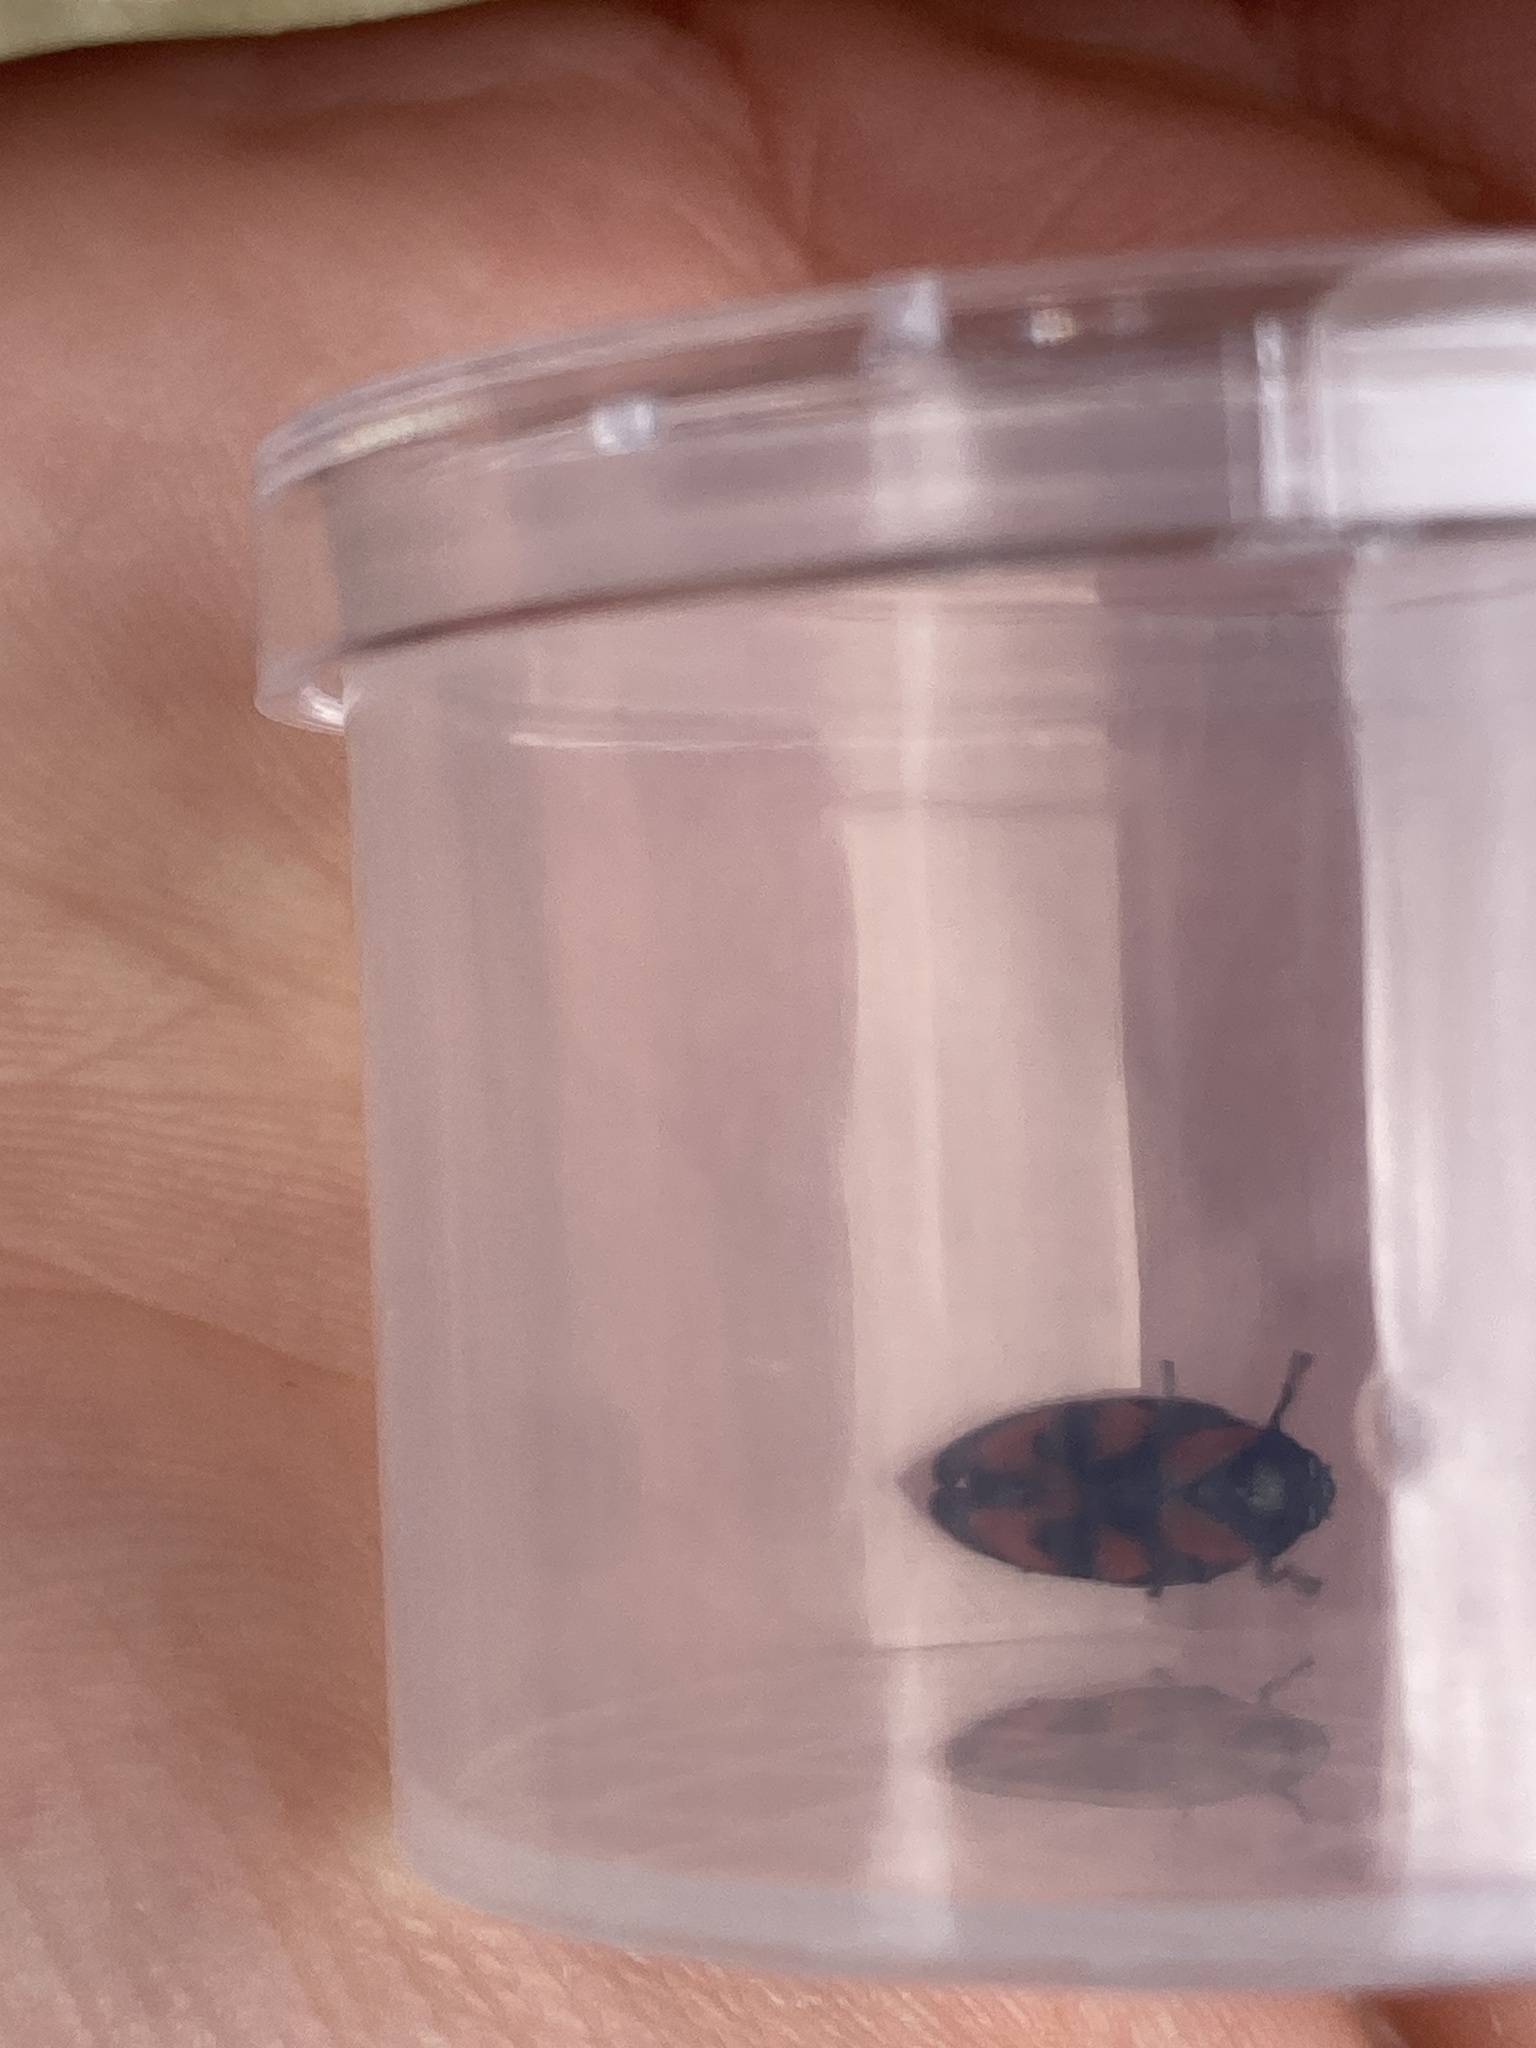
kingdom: Animalia
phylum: Arthropoda
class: Insecta
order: Hemiptera
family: Cercopidae
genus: Cercopis
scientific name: Cercopis vulnerata
